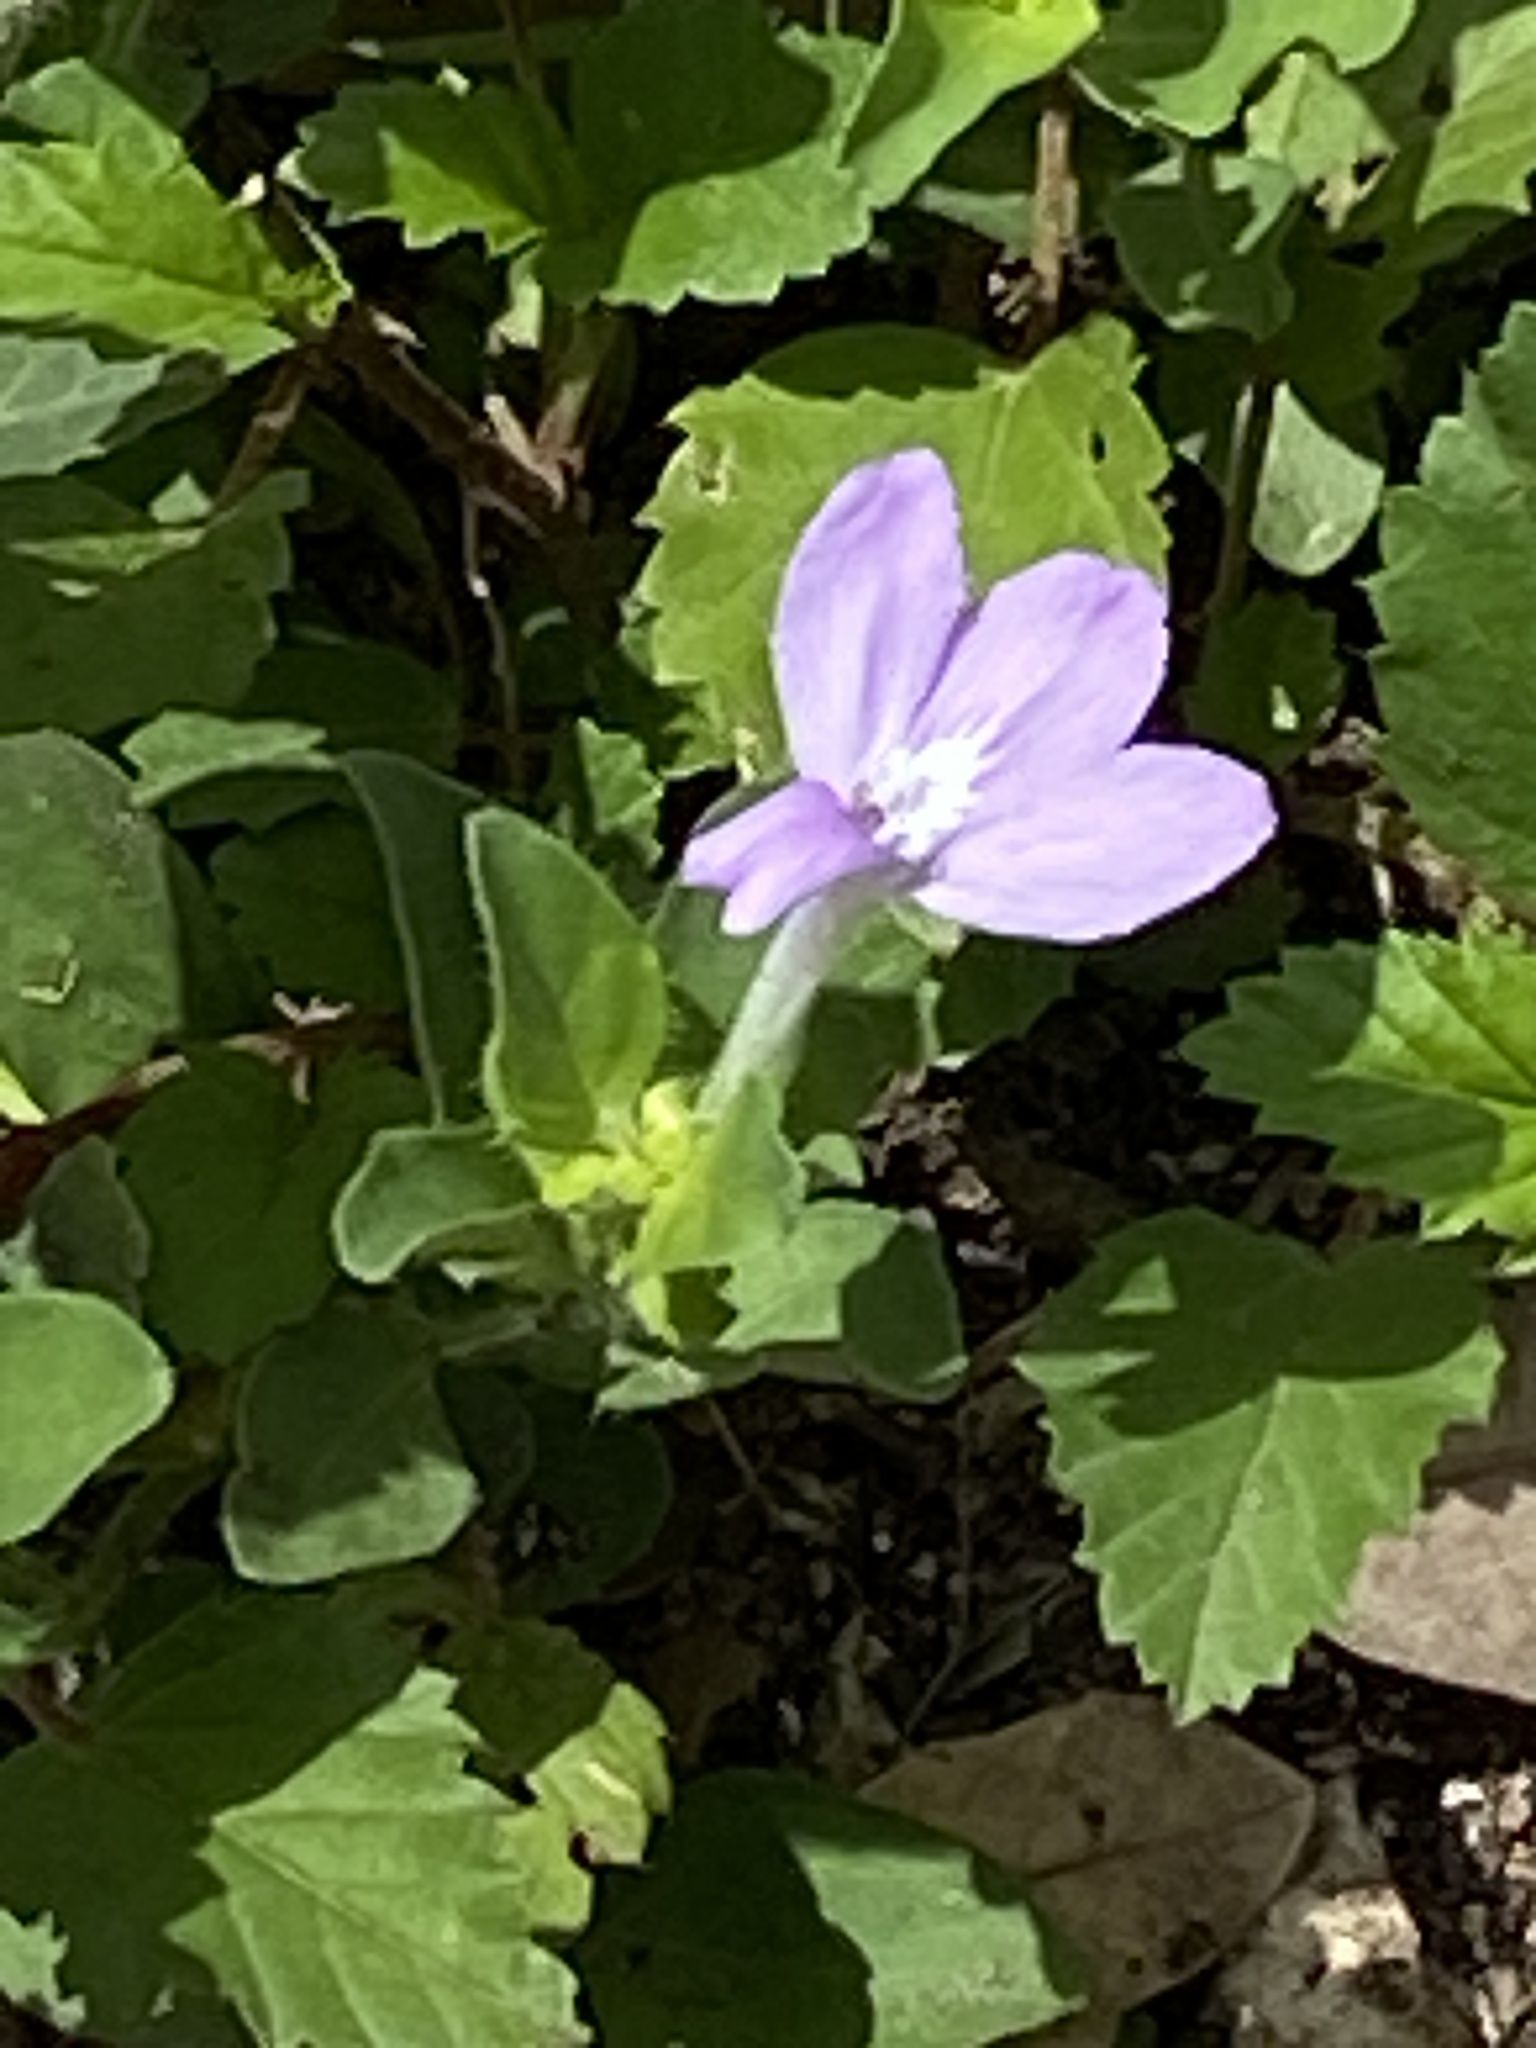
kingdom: Plantae
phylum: Tracheophyta
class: Magnoliopsida
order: Lamiales
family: Acanthaceae
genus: Justicia
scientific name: Justicia pilosella
